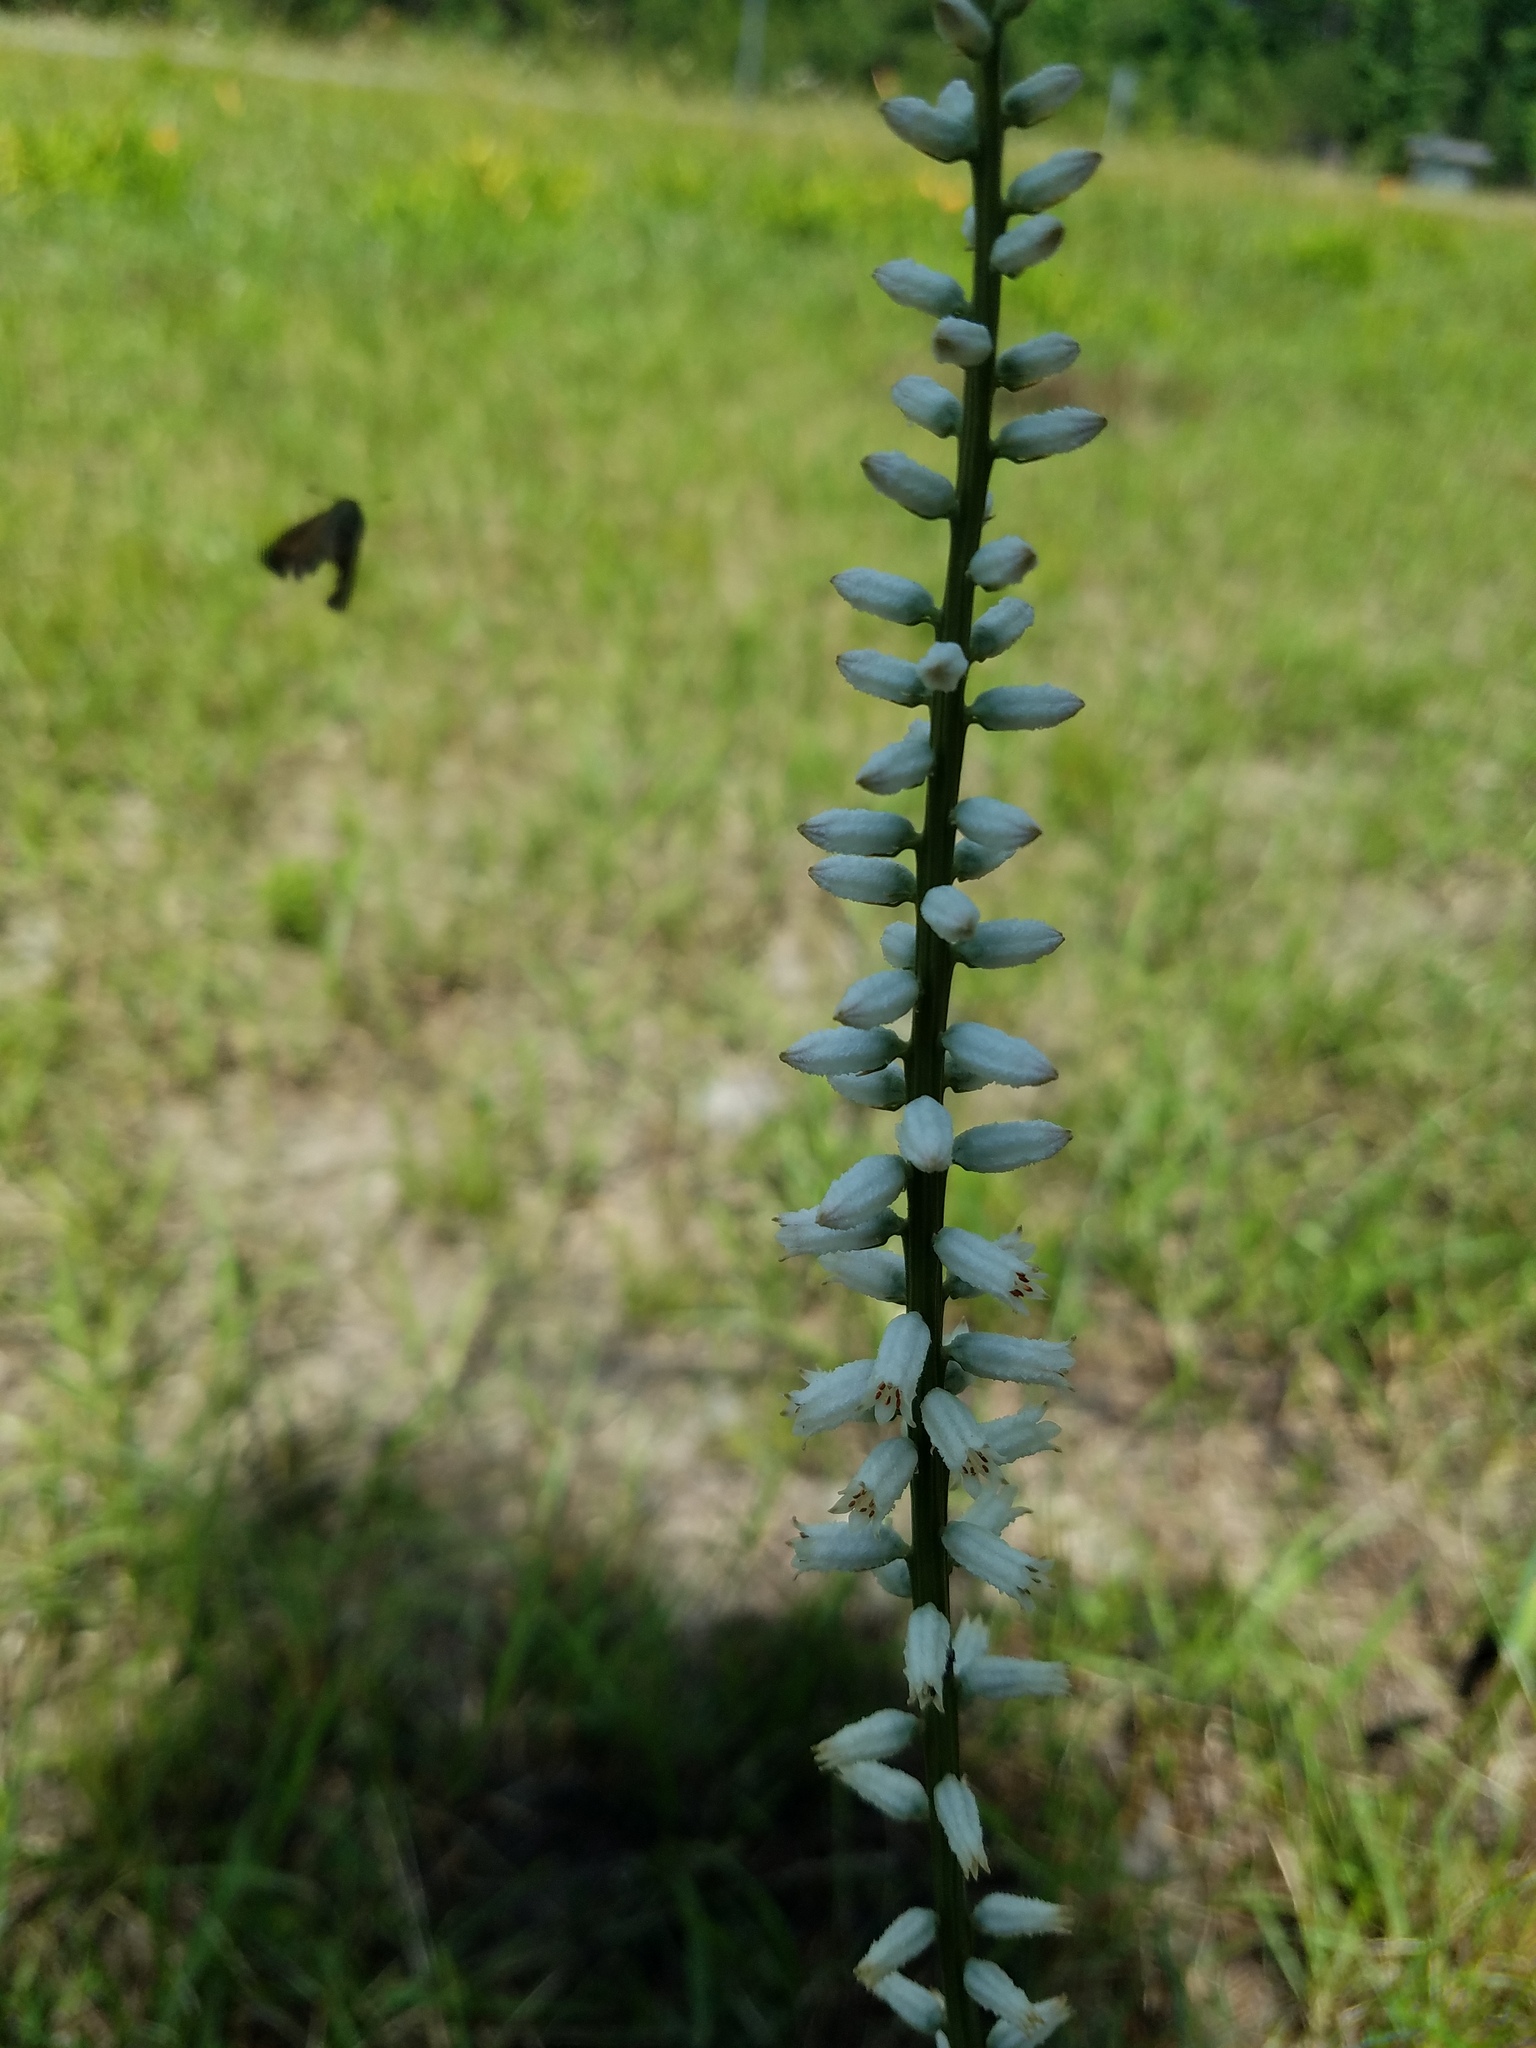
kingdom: Plantae
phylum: Tracheophyta
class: Liliopsida
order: Dioscoreales
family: Nartheciaceae
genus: Aletris
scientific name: Aletris farinosa
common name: Colicroot
